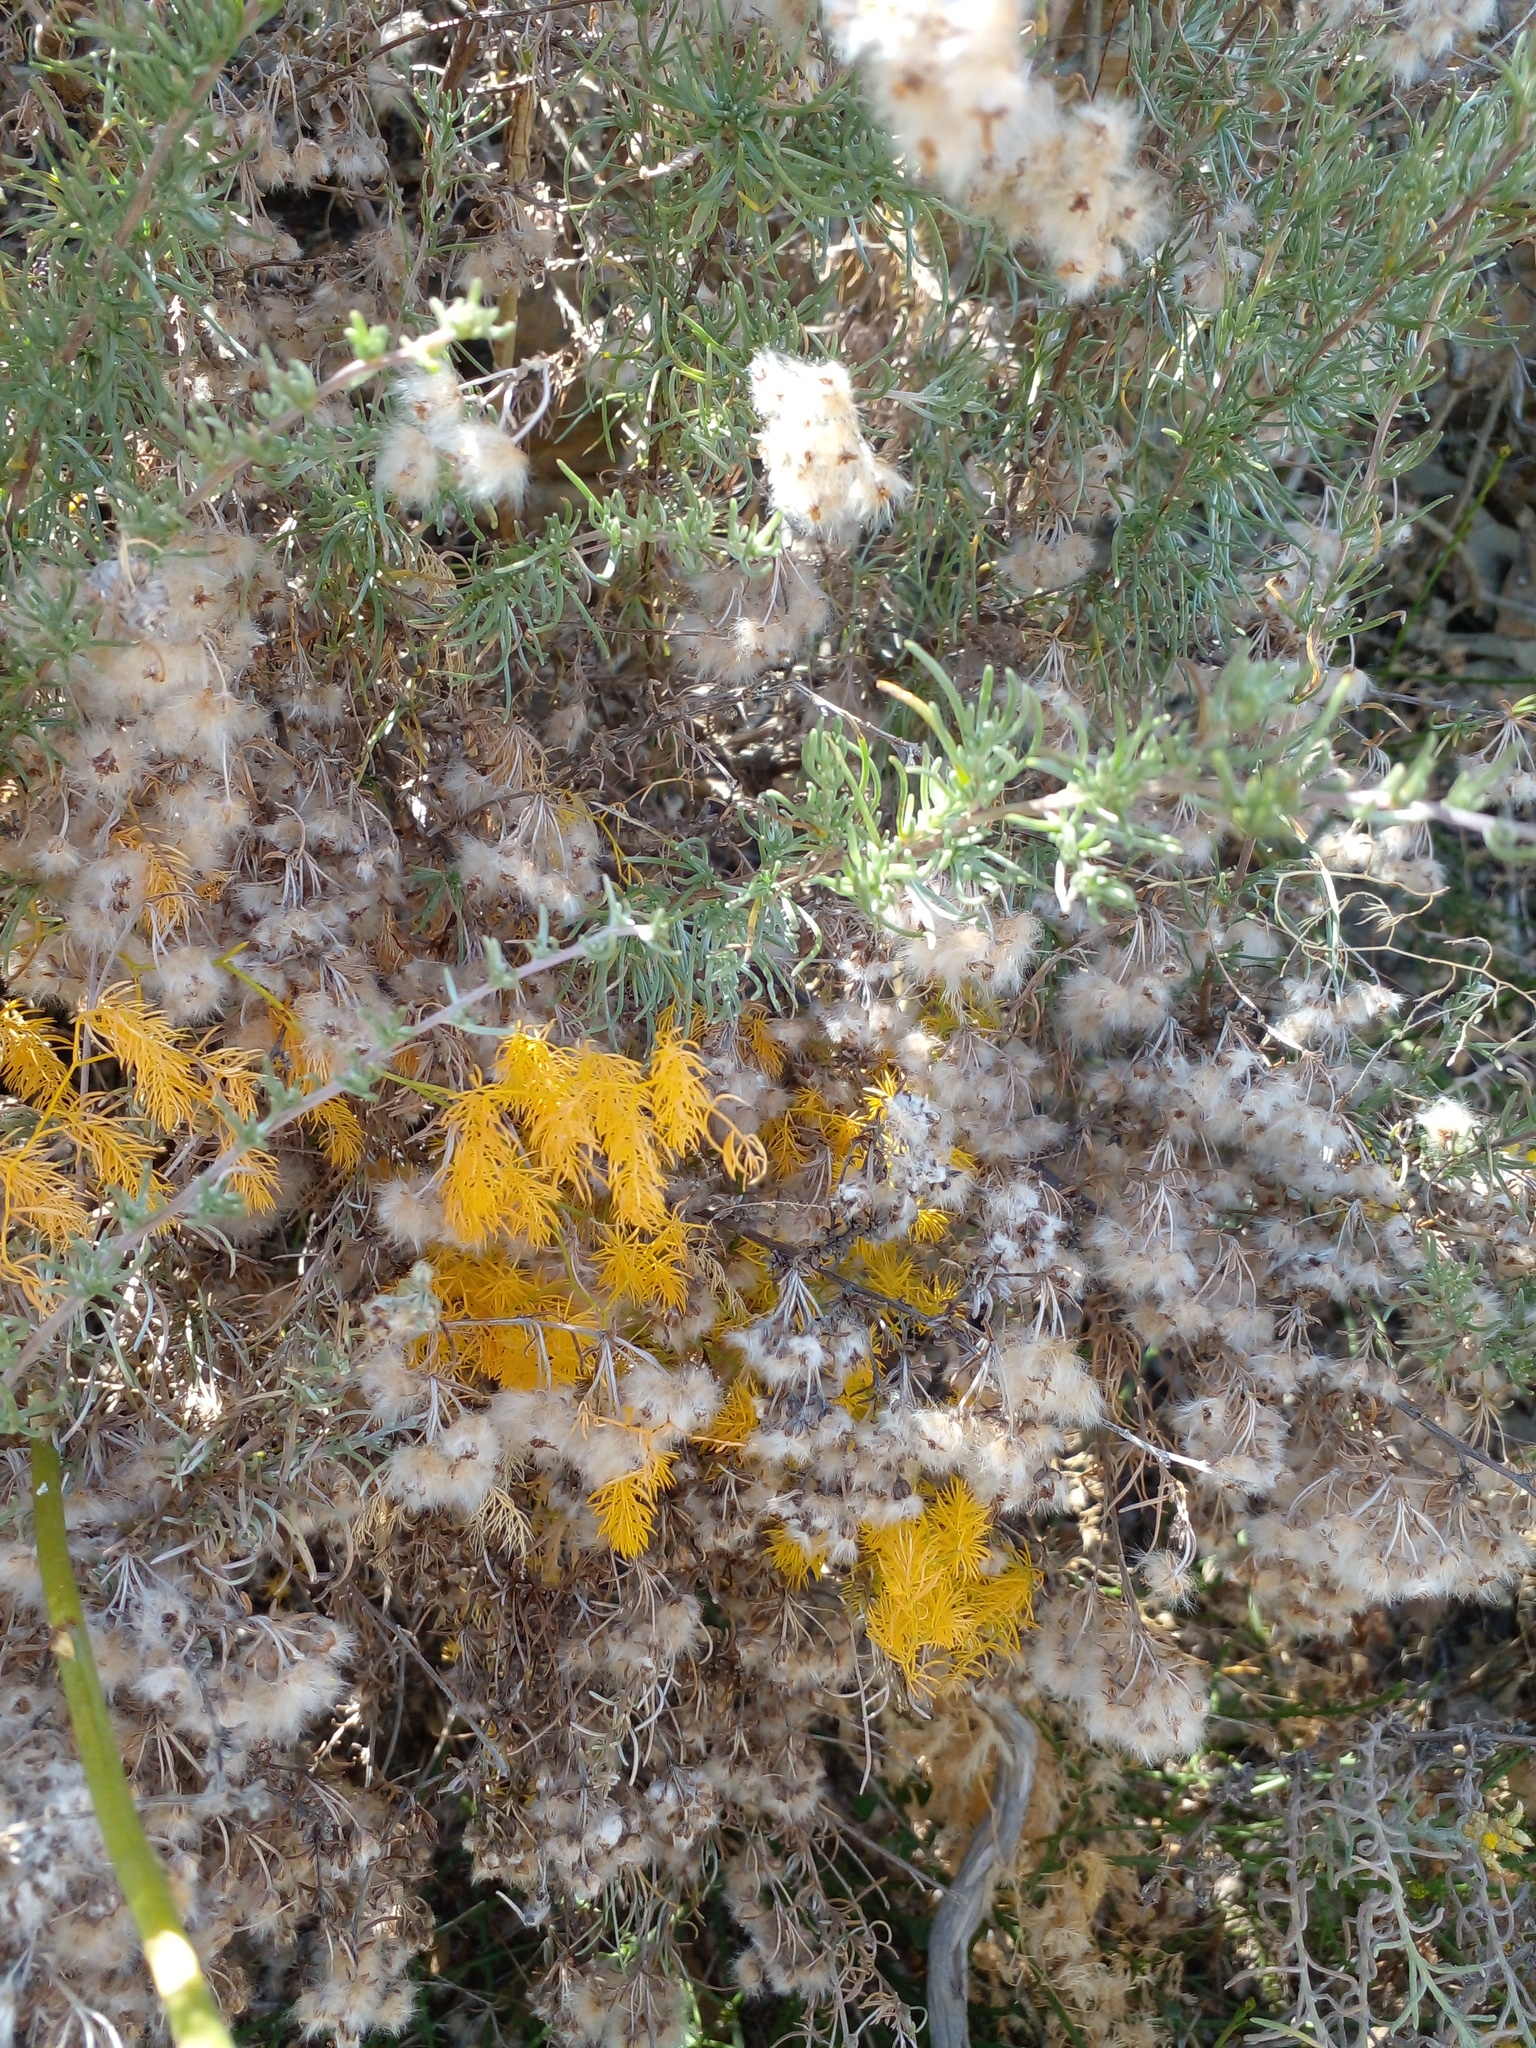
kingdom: Plantae
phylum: Tracheophyta
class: Magnoliopsida
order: Asterales
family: Asteraceae
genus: Eriocephalus
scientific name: Eriocephalus africanus
